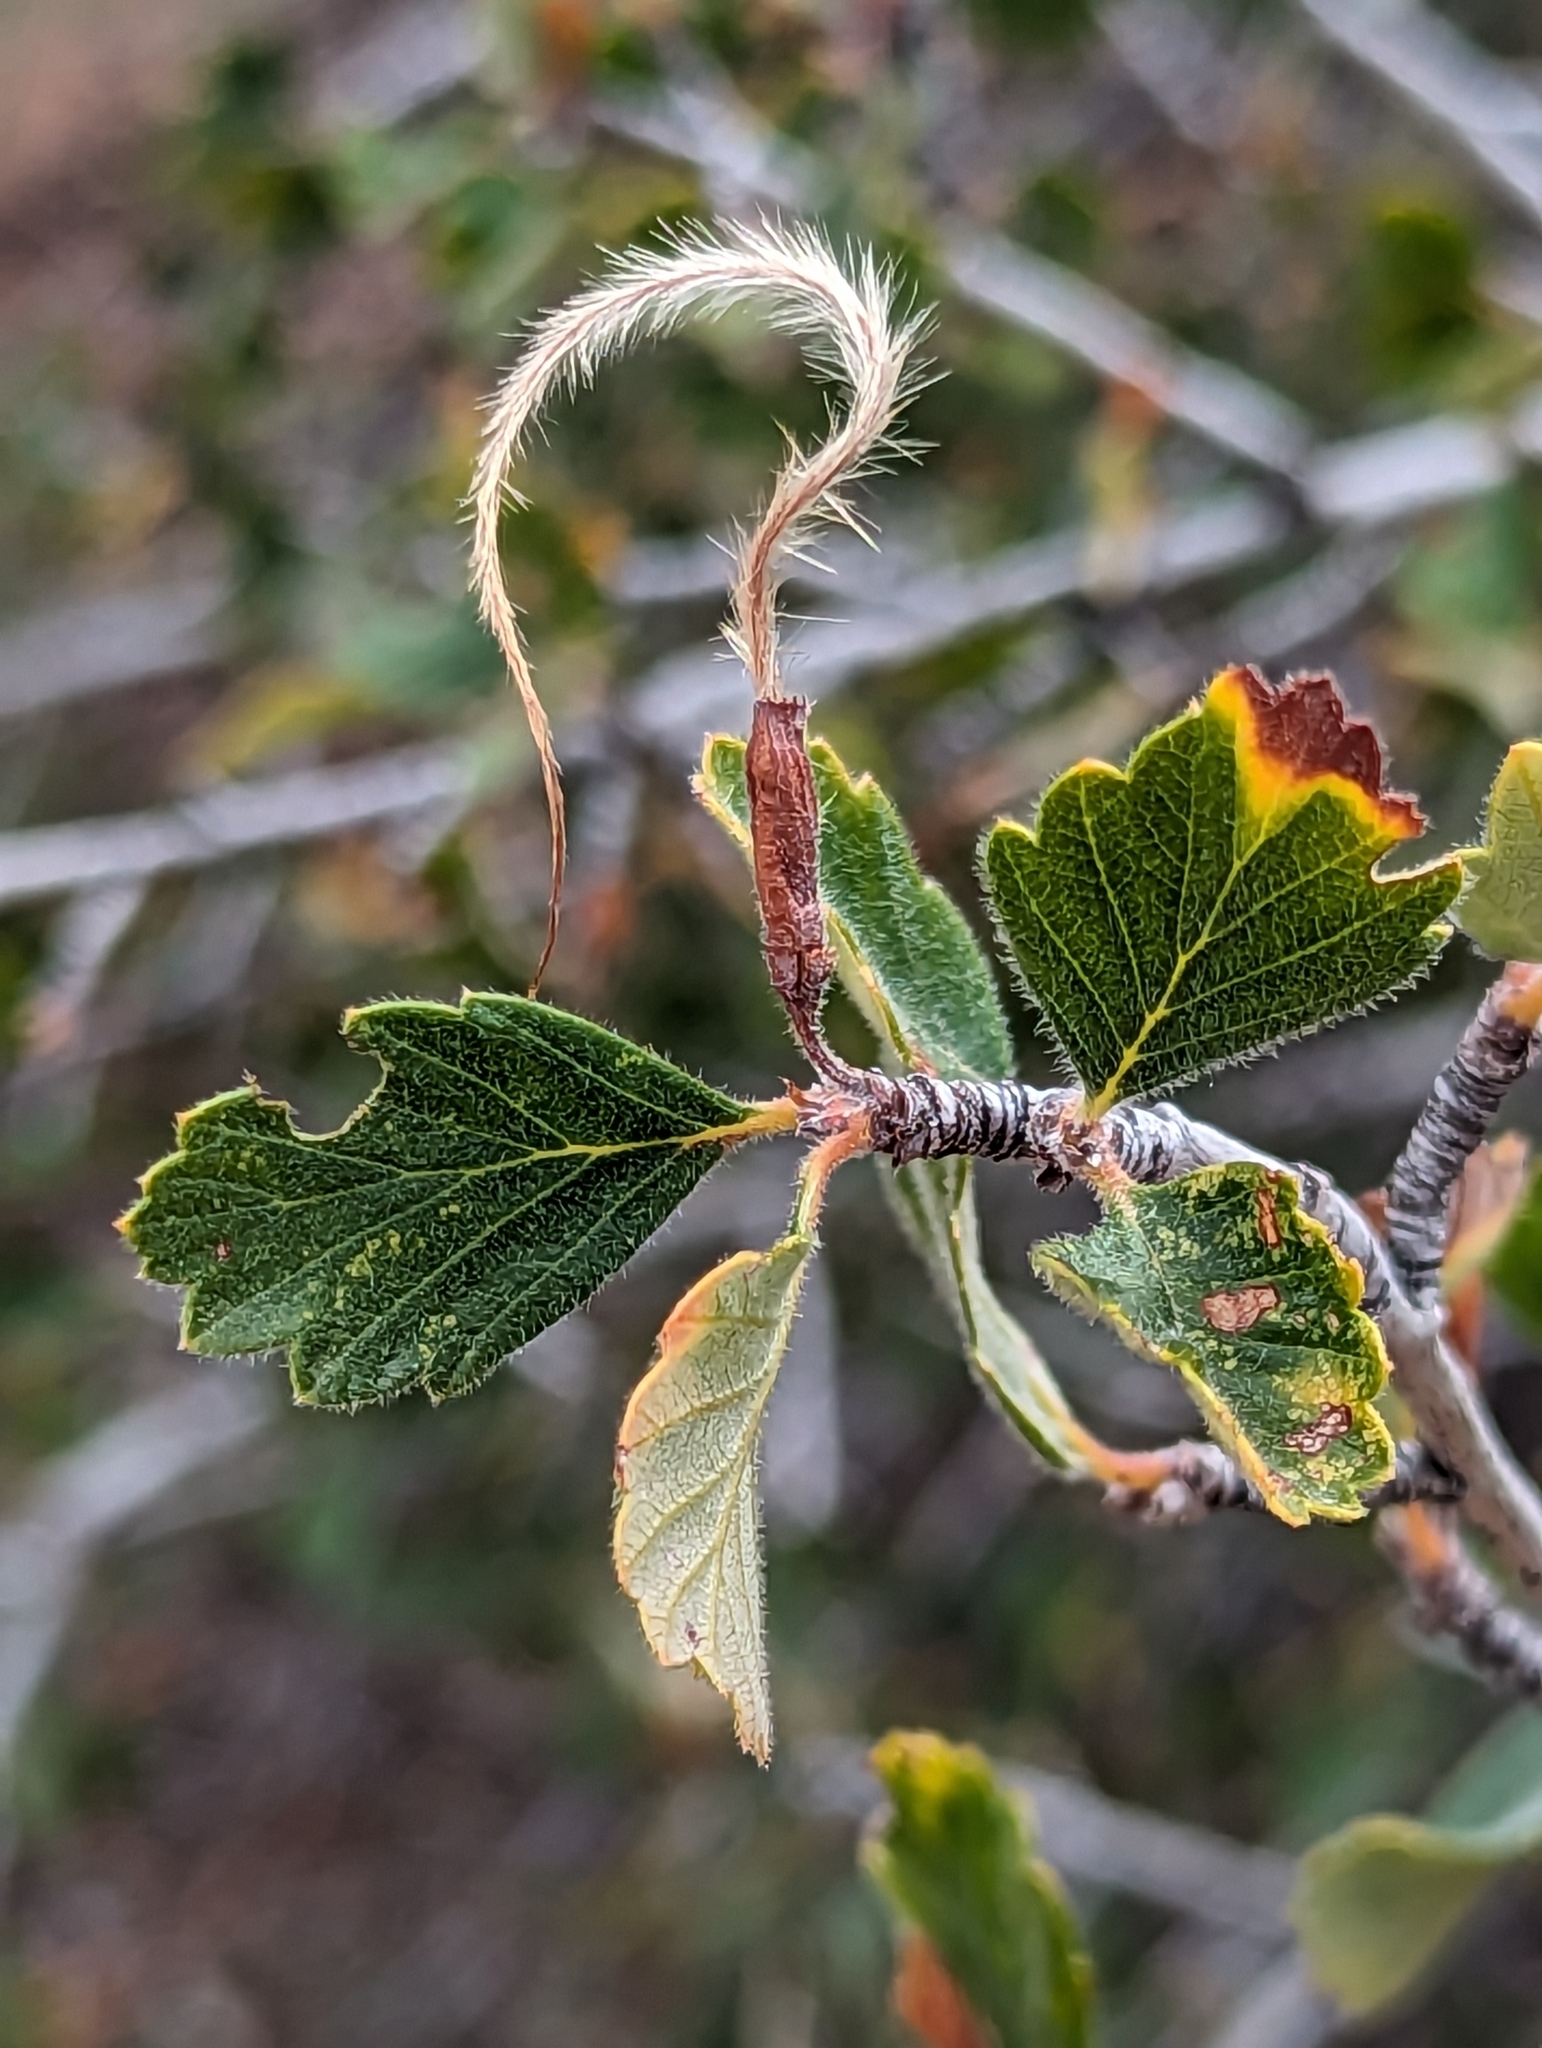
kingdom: Plantae
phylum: Tracheophyta
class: Magnoliopsida
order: Rosales
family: Rosaceae
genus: Cercocarpus
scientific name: Cercocarpus montanus
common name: Alder-leaf cercocarpus
